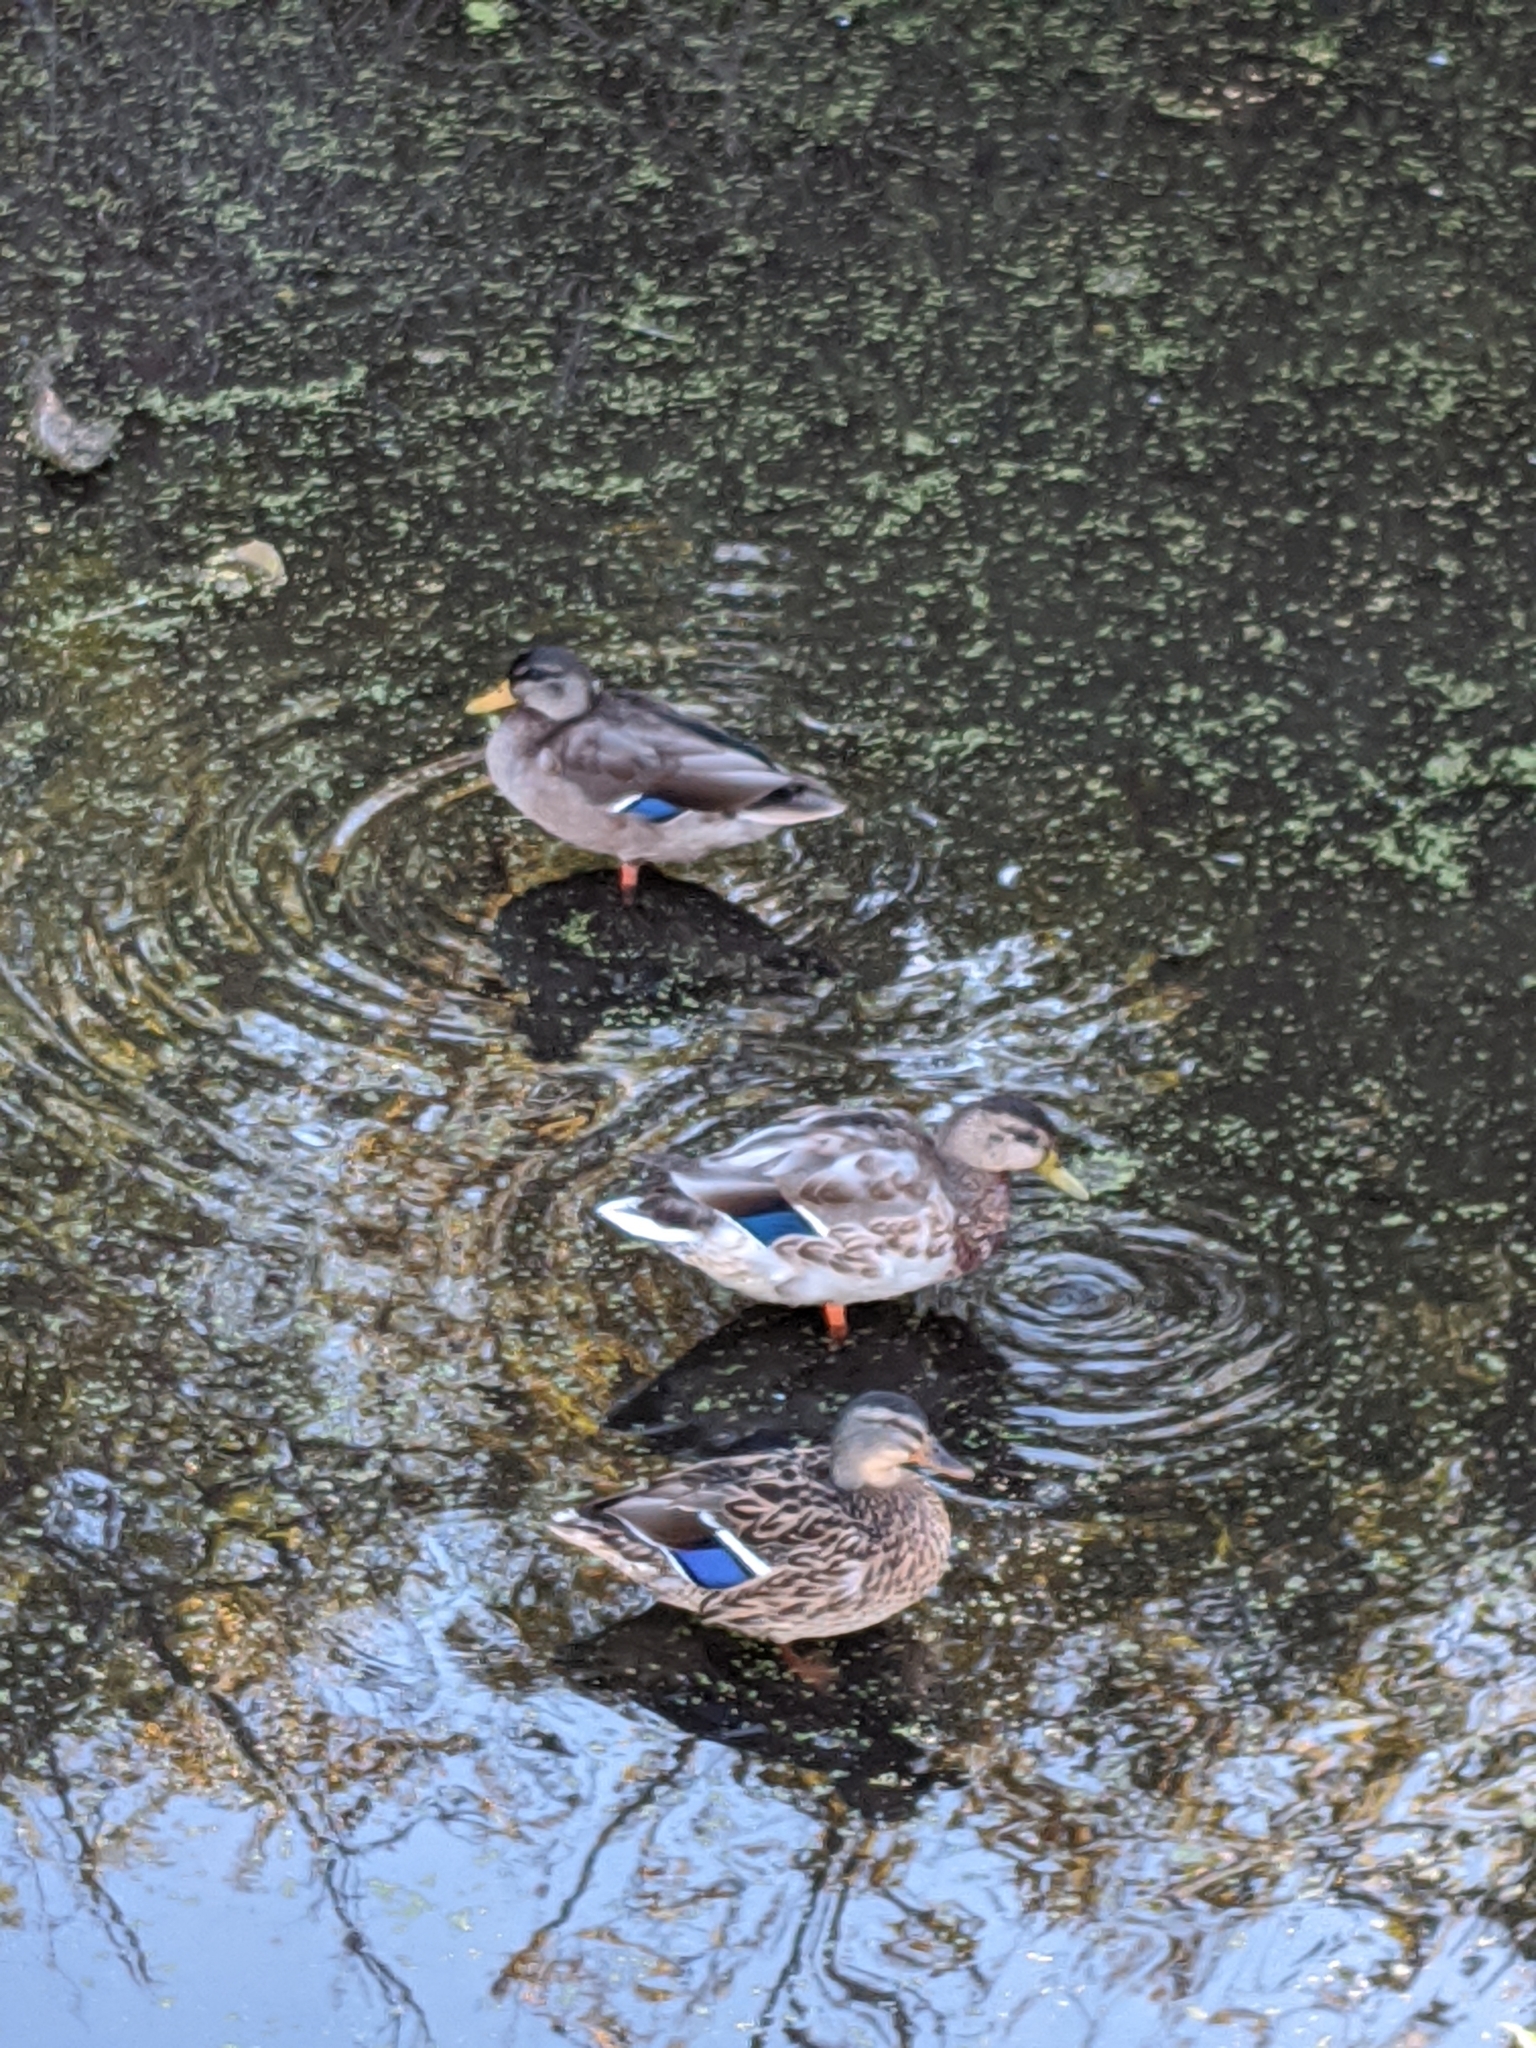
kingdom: Animalia
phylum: Chordata
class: Aves
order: Anseriformes
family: Anatidae
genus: Anas
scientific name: Anas platyrhynchos
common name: Mallard
